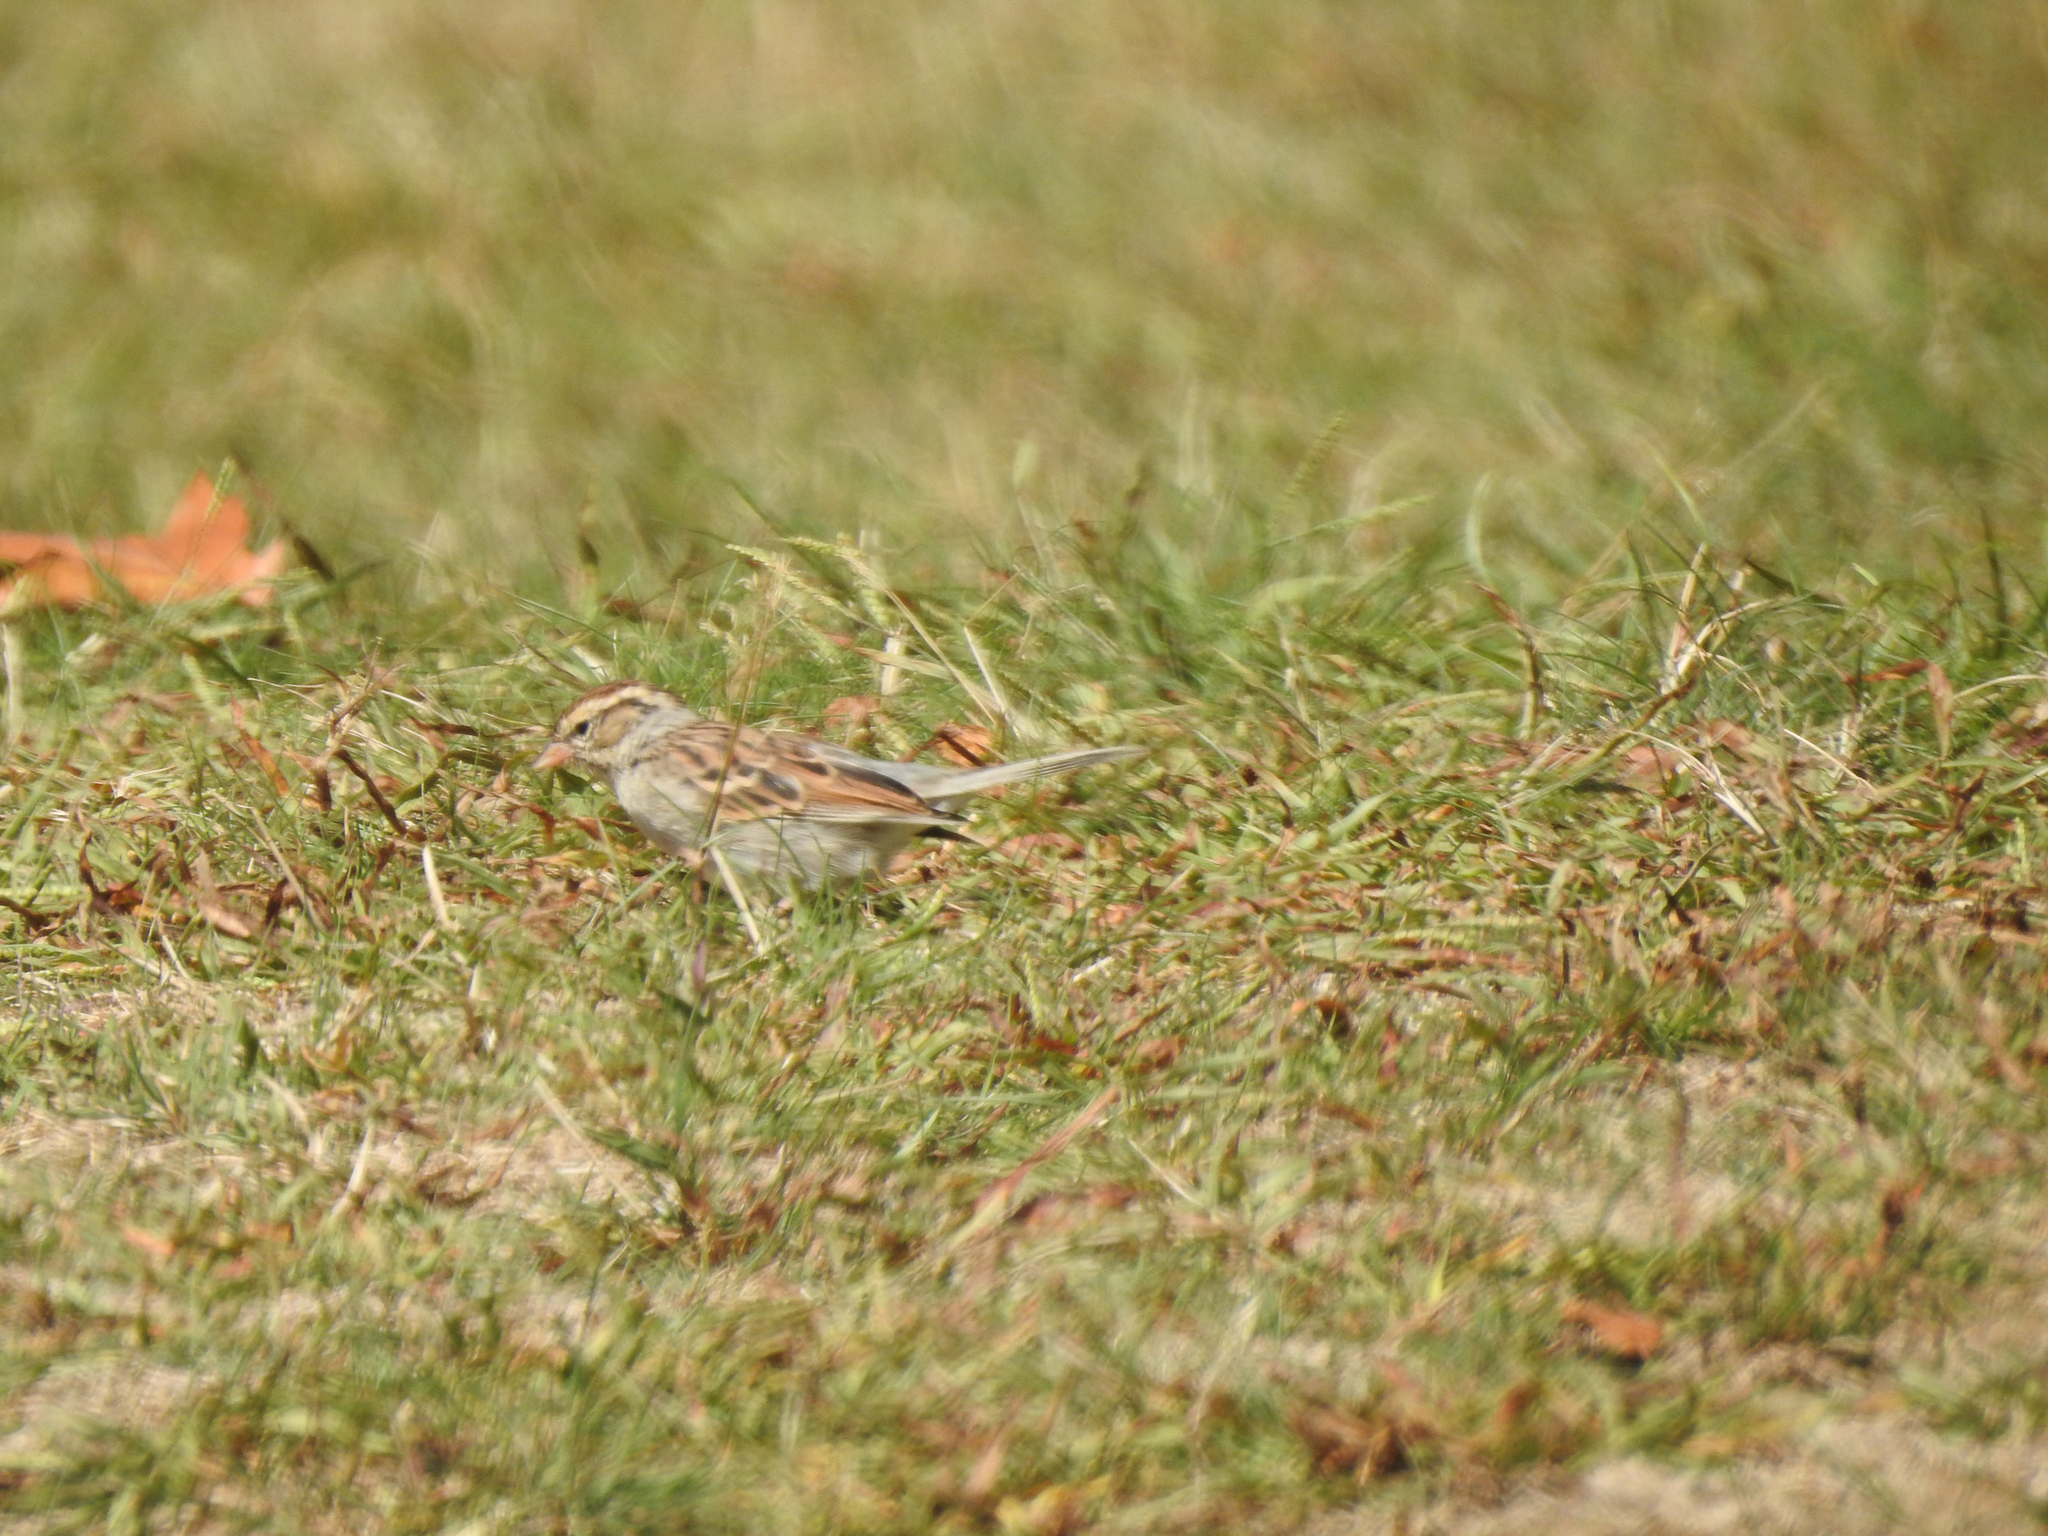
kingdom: Animalia
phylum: Chordata
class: Aves
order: Passeriformes
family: Passerellidae
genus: Spizella
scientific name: Spizella passerina
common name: Chipping sparrow
